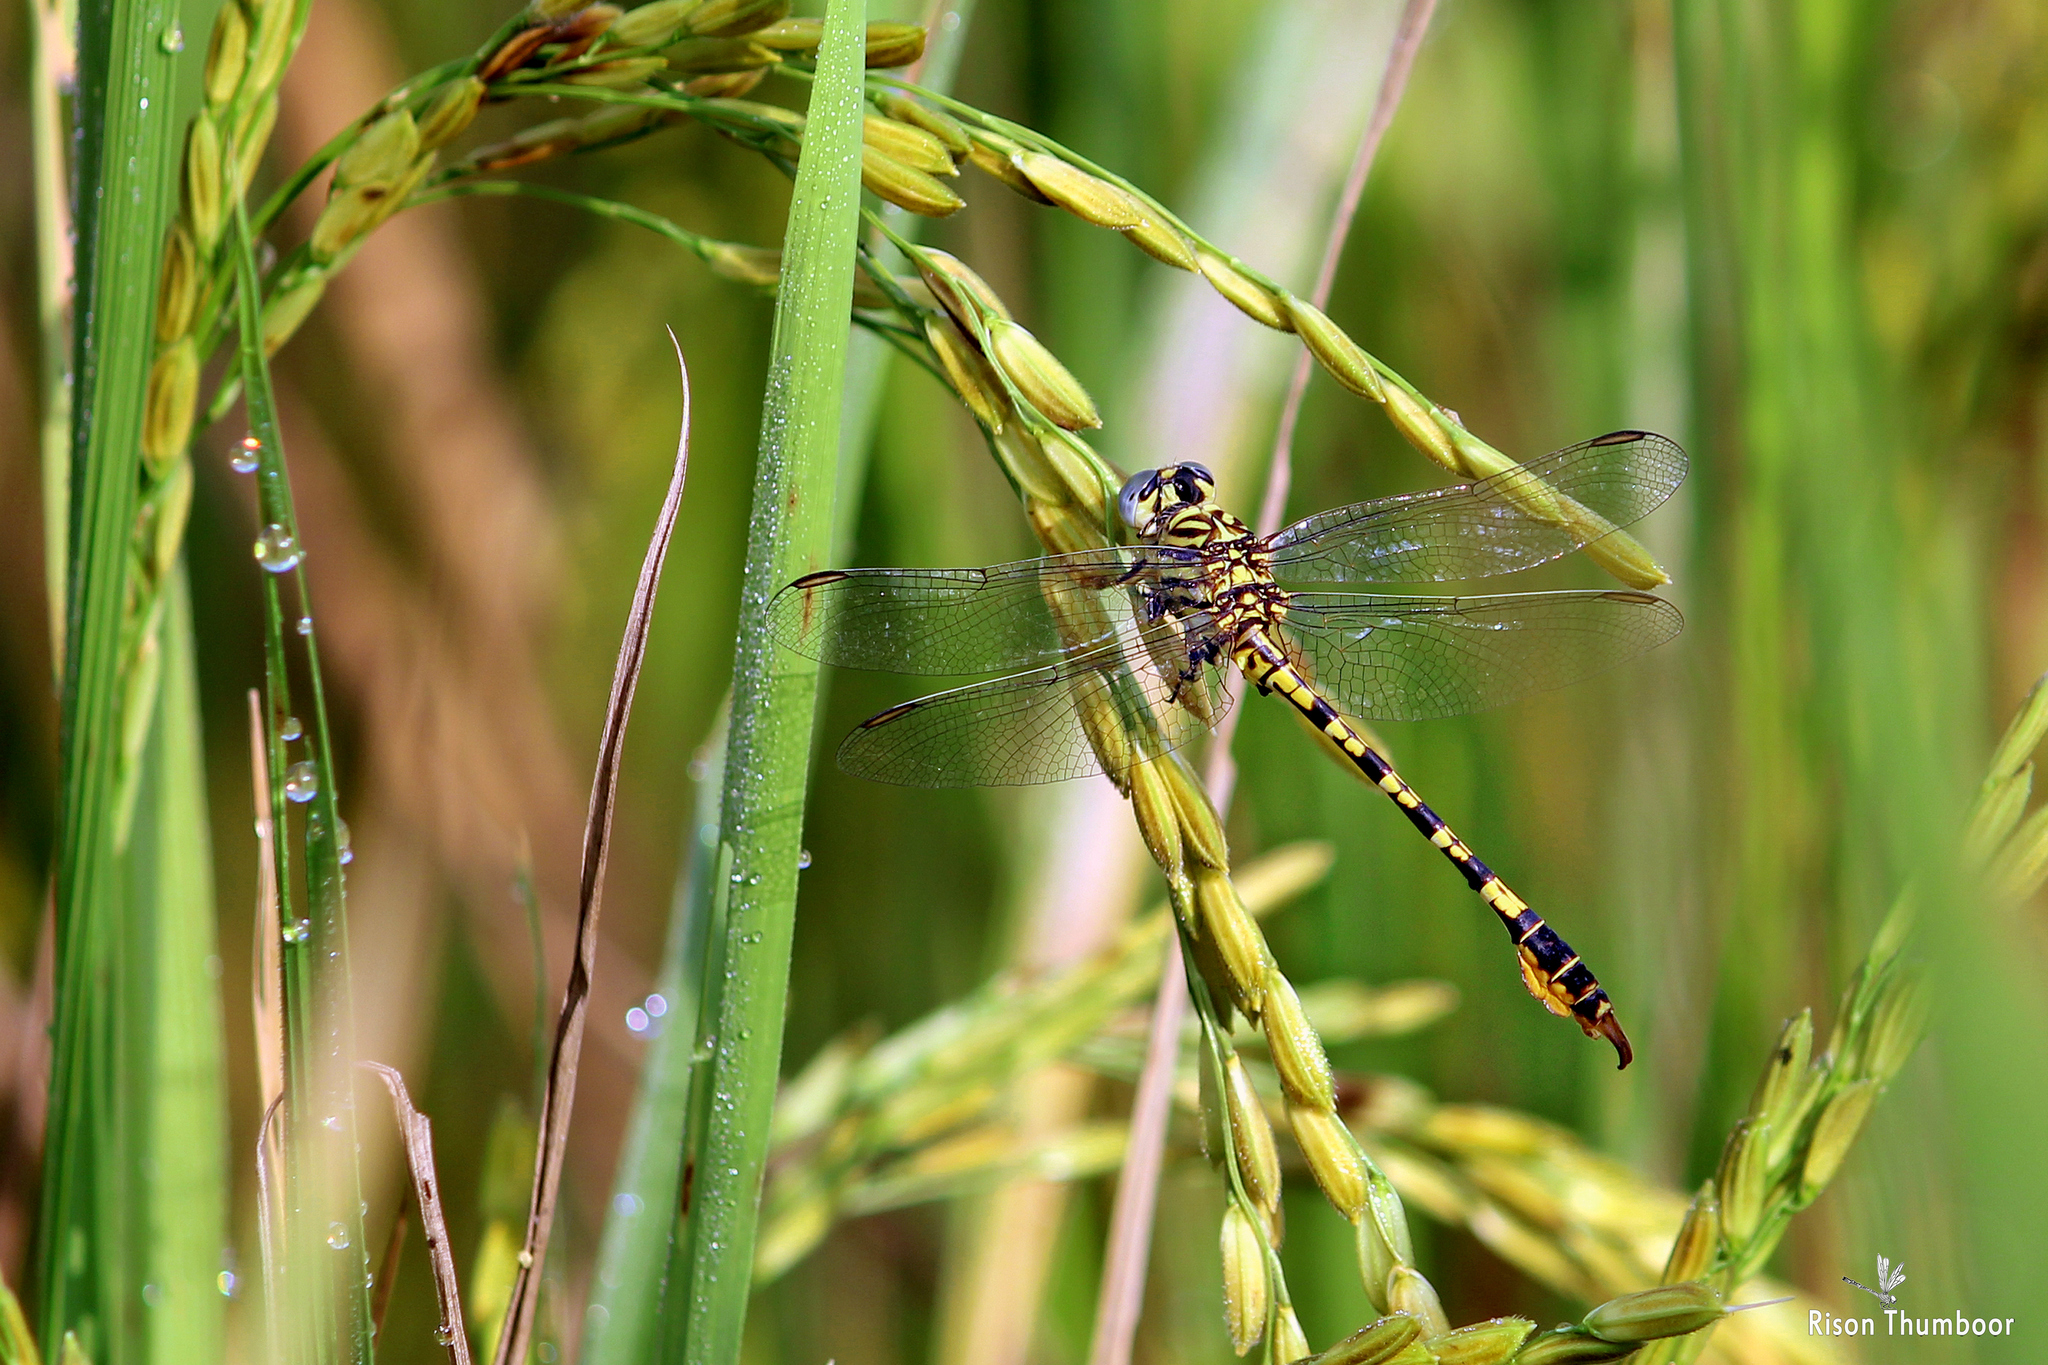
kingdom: Animalia
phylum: Arthropoda
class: Insecta
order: Odonata
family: Gomphidae
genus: Paragomphus
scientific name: Paragomphus lineatus
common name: Lined hooktail
